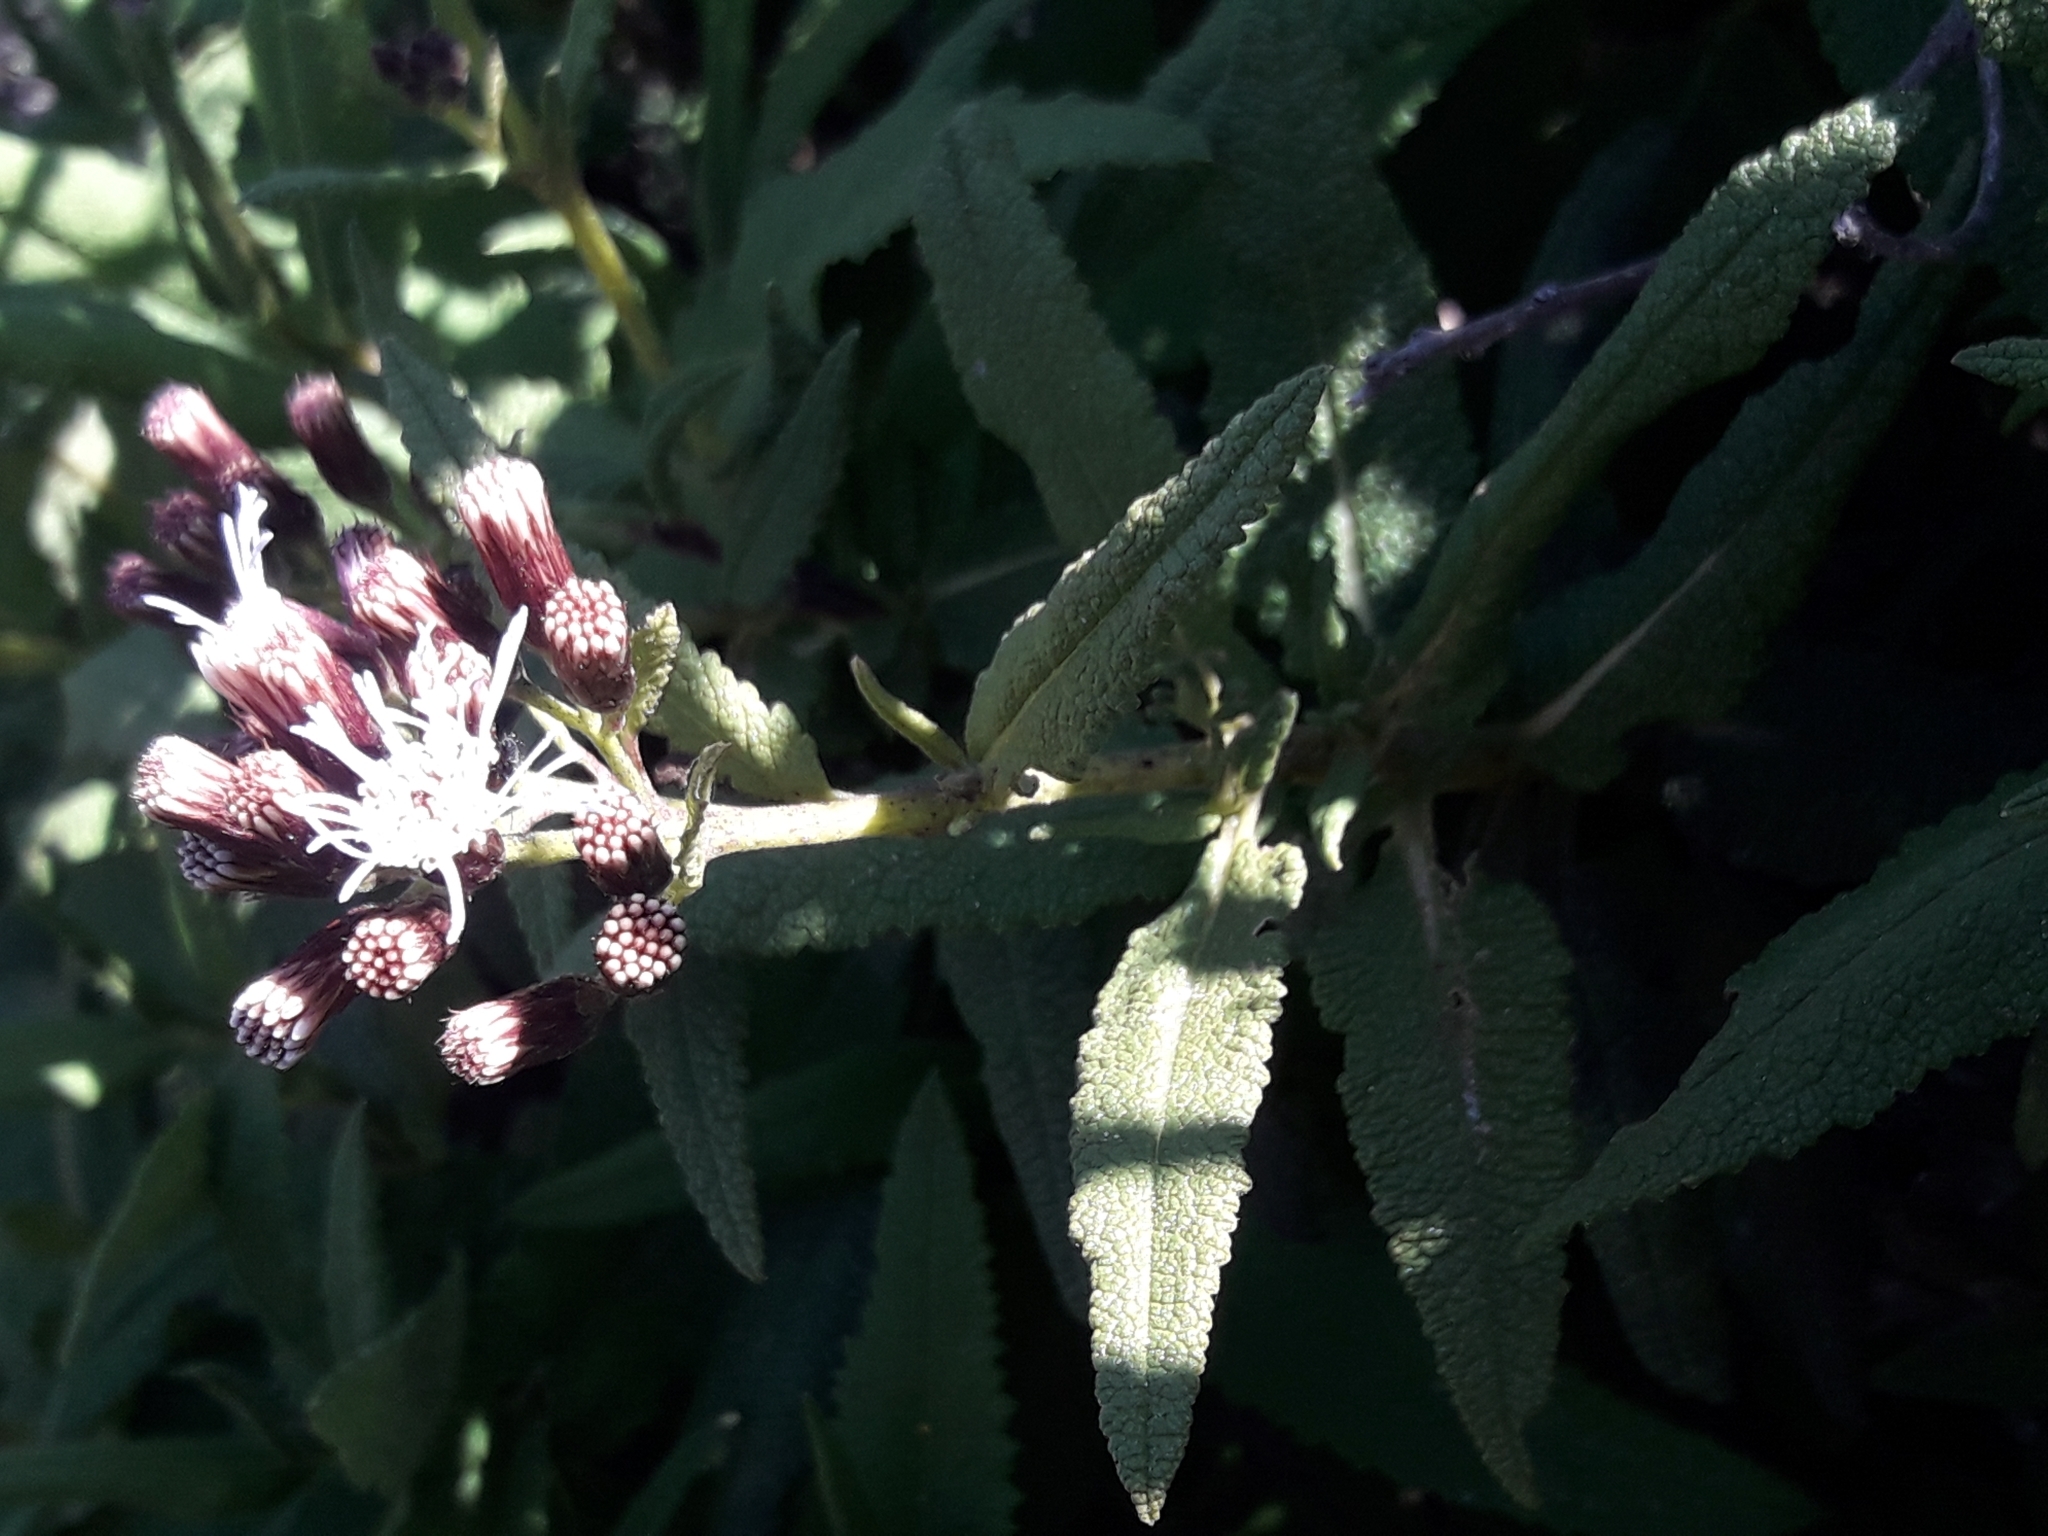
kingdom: Plantae
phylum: Tracheophyta
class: Magnoliopsida
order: Asterales
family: Asteraceae
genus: Aristeguietia
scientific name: Aristeguietia salvia
